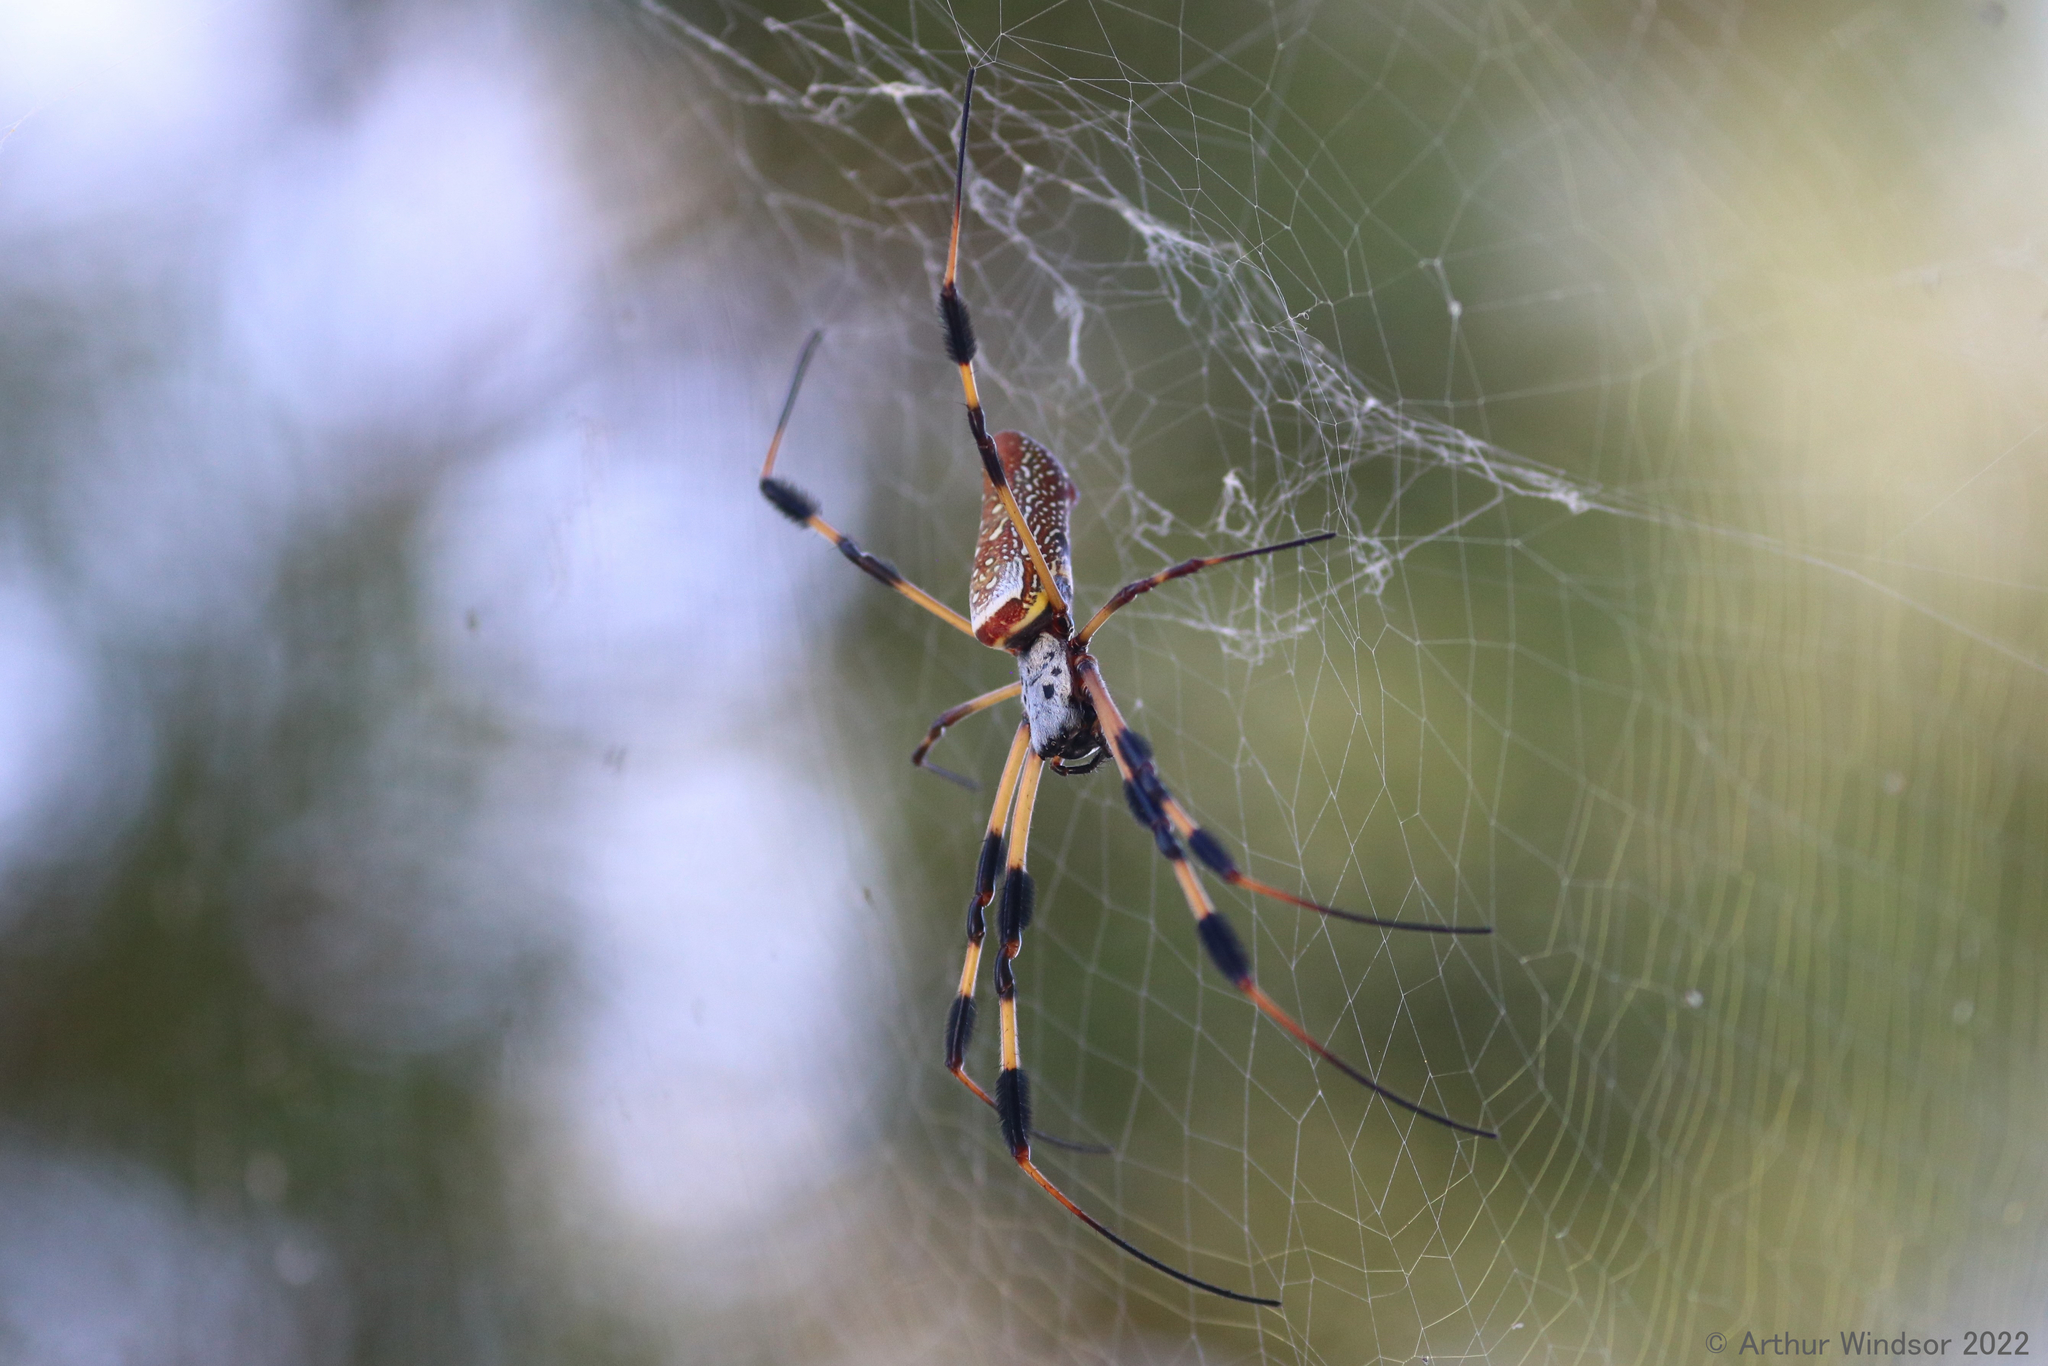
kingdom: Animalia
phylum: Arthropoda
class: Arachnida
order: Araneae
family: Araneidae
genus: Trichonephila
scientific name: Trichonephila clavipes
